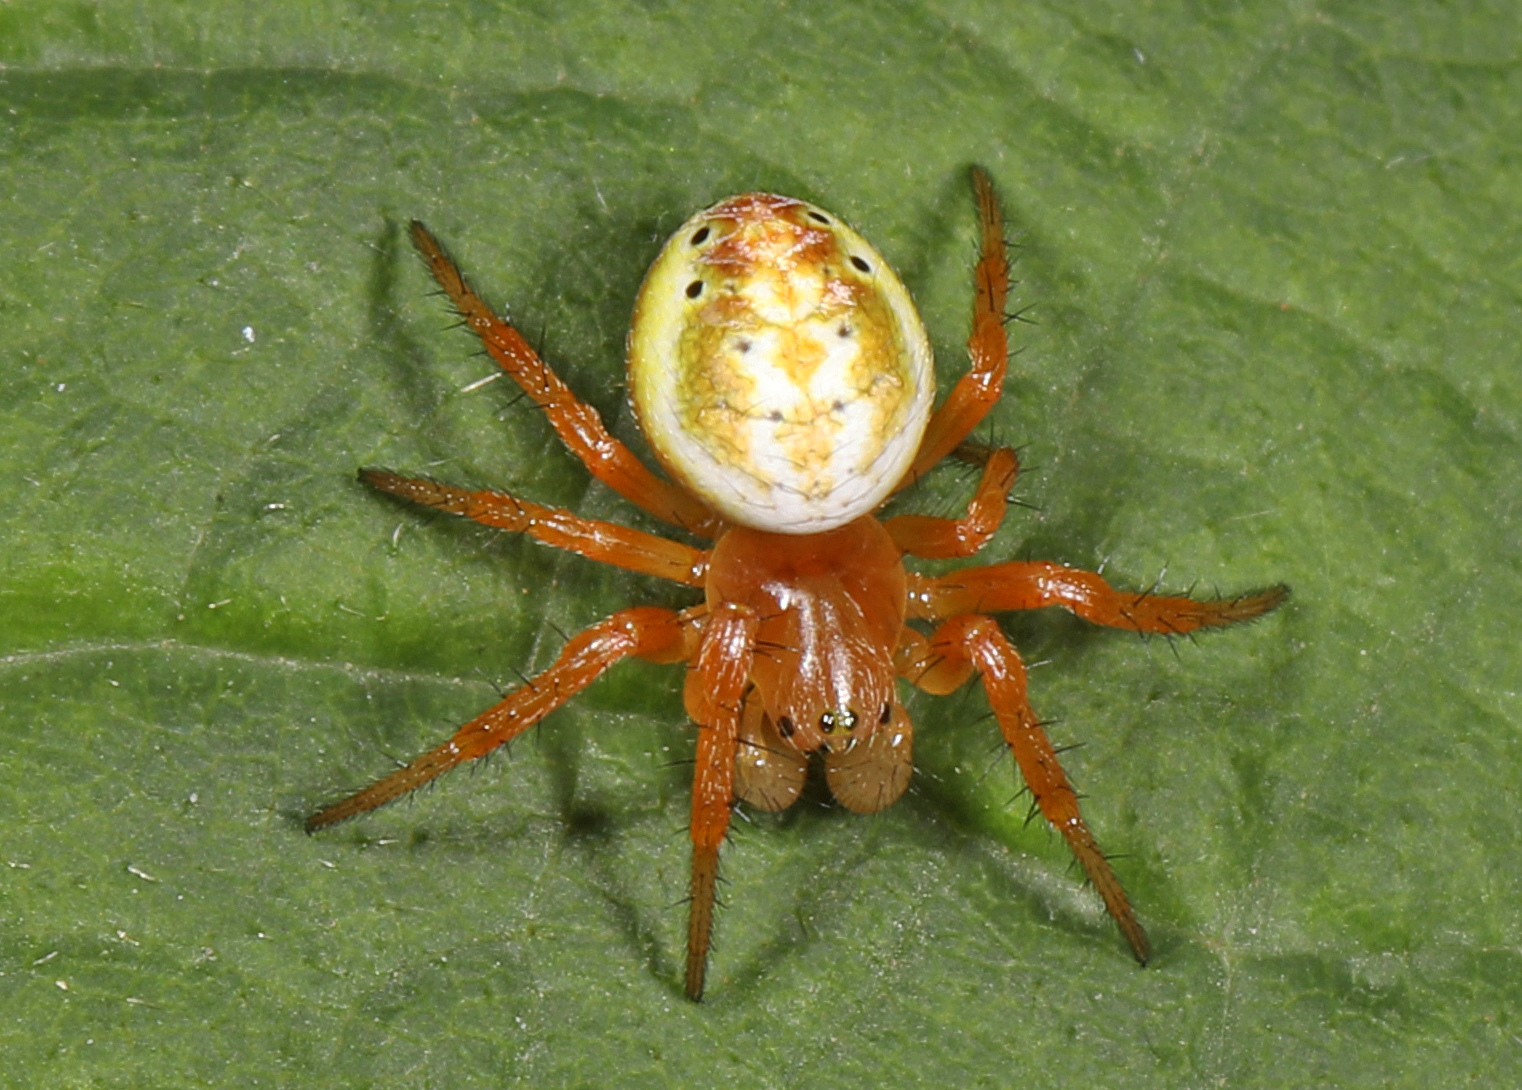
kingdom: Animalia
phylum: Arthropoda
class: Arachnida
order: Araneae
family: Araneidae
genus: Araniella
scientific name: Araniella displicata
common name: Sixspotted orb weaver
